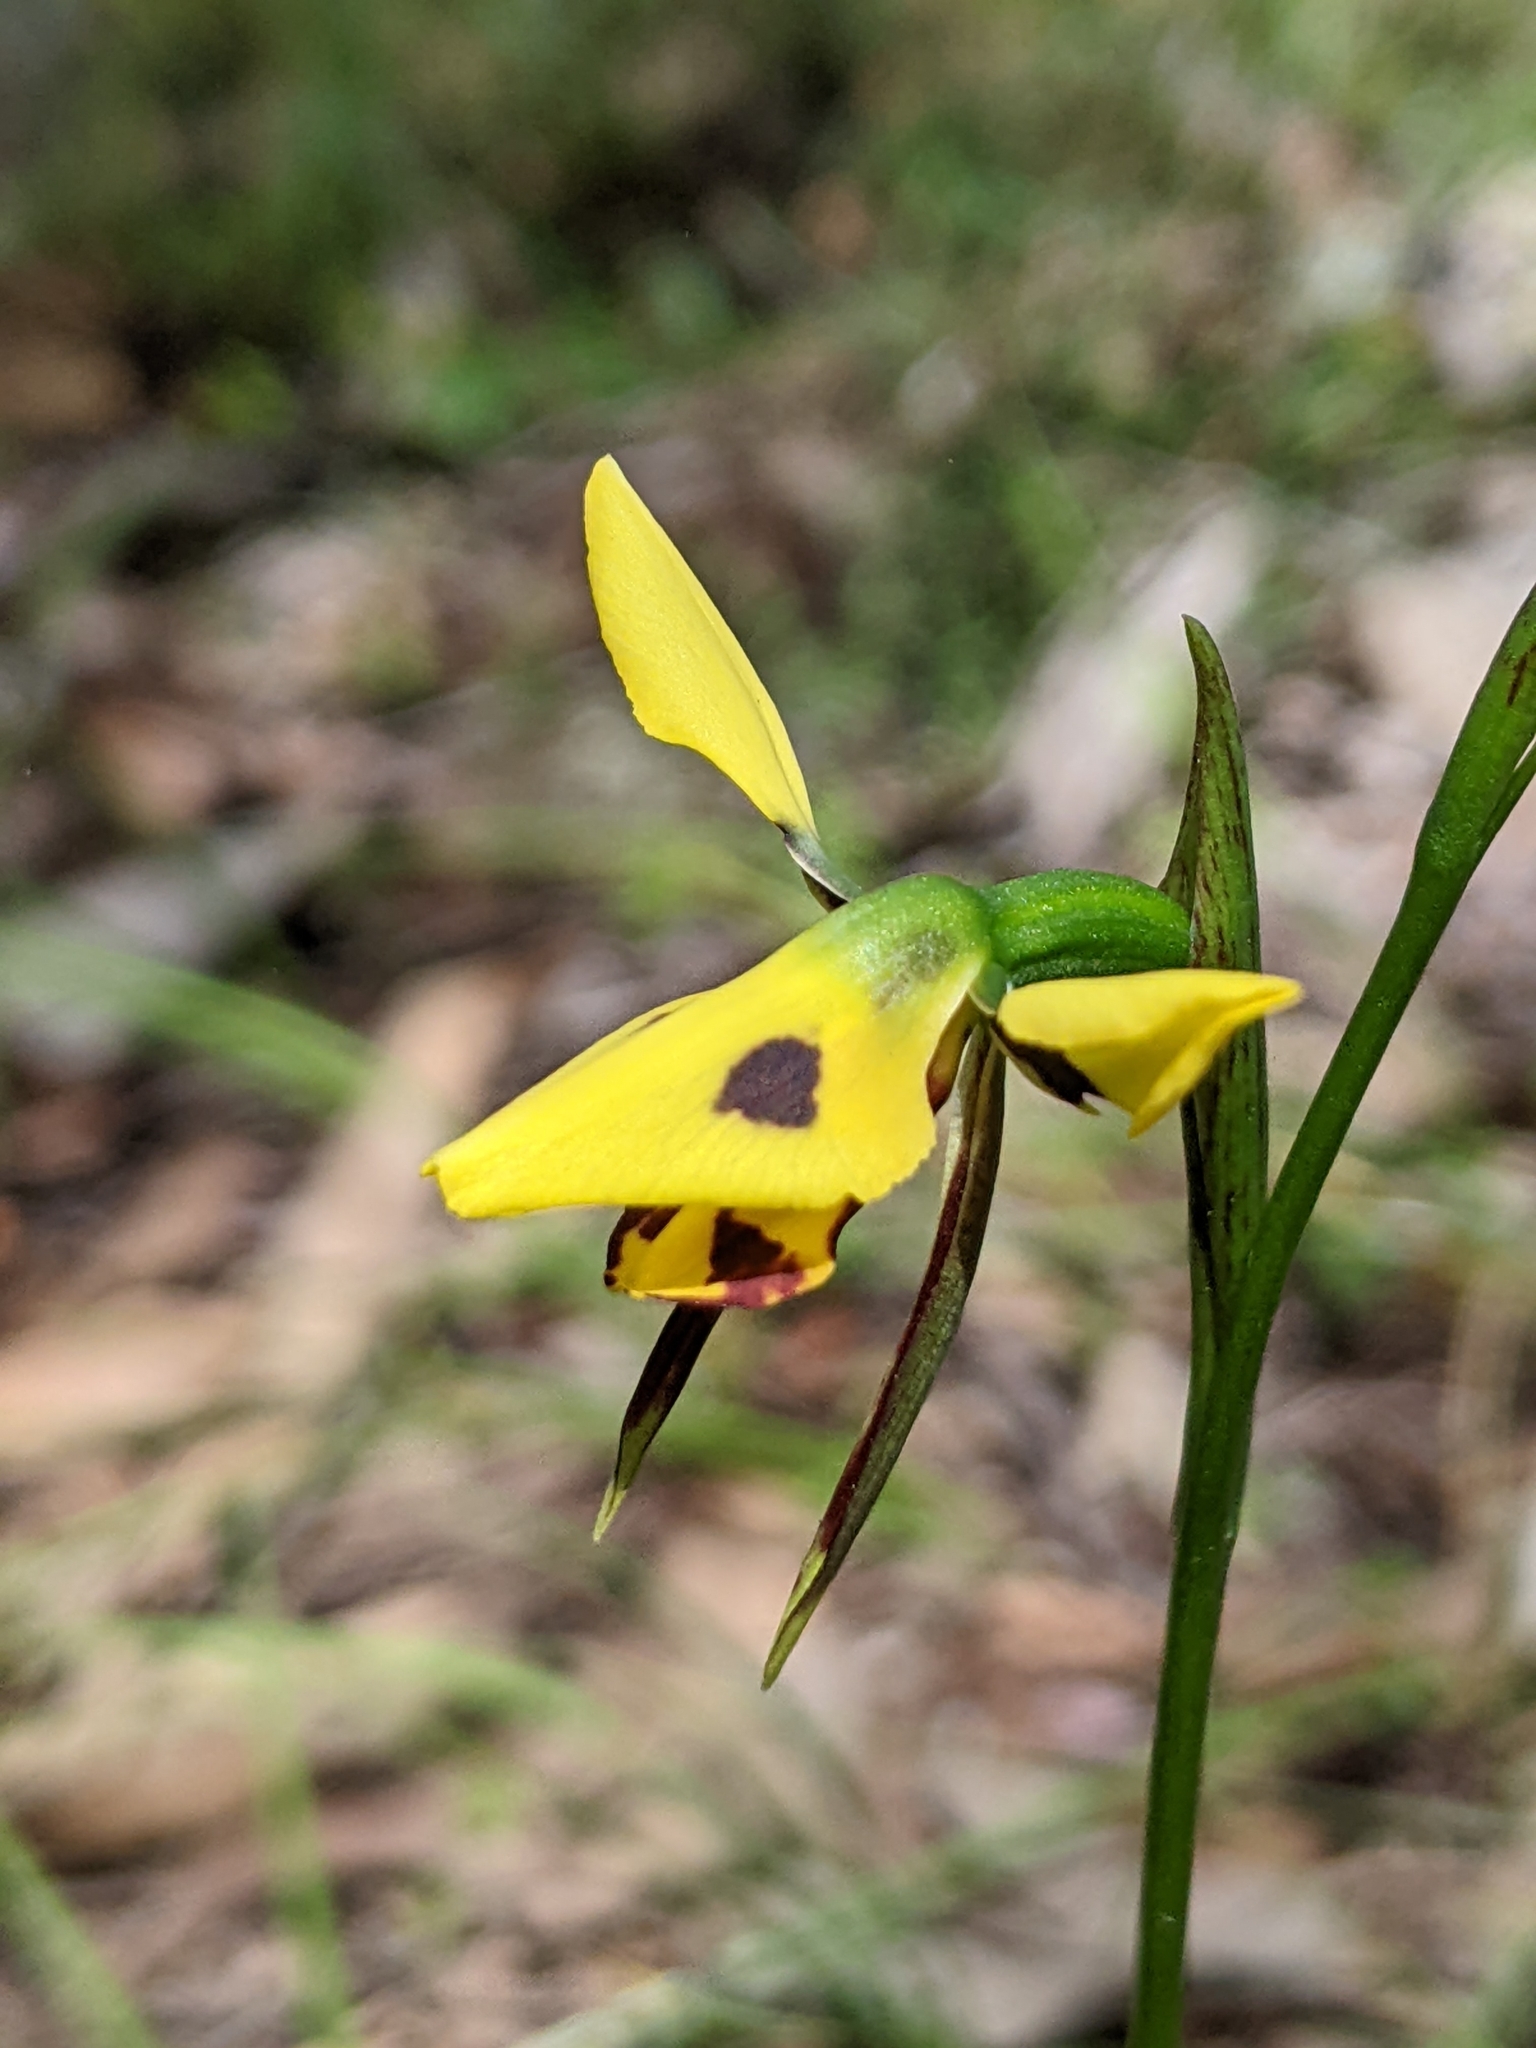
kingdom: Plantae
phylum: Tracheophyta
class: Liliopsida
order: Asparagales
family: Orchidaceae
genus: Diuris
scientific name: Diuris sulphurea
